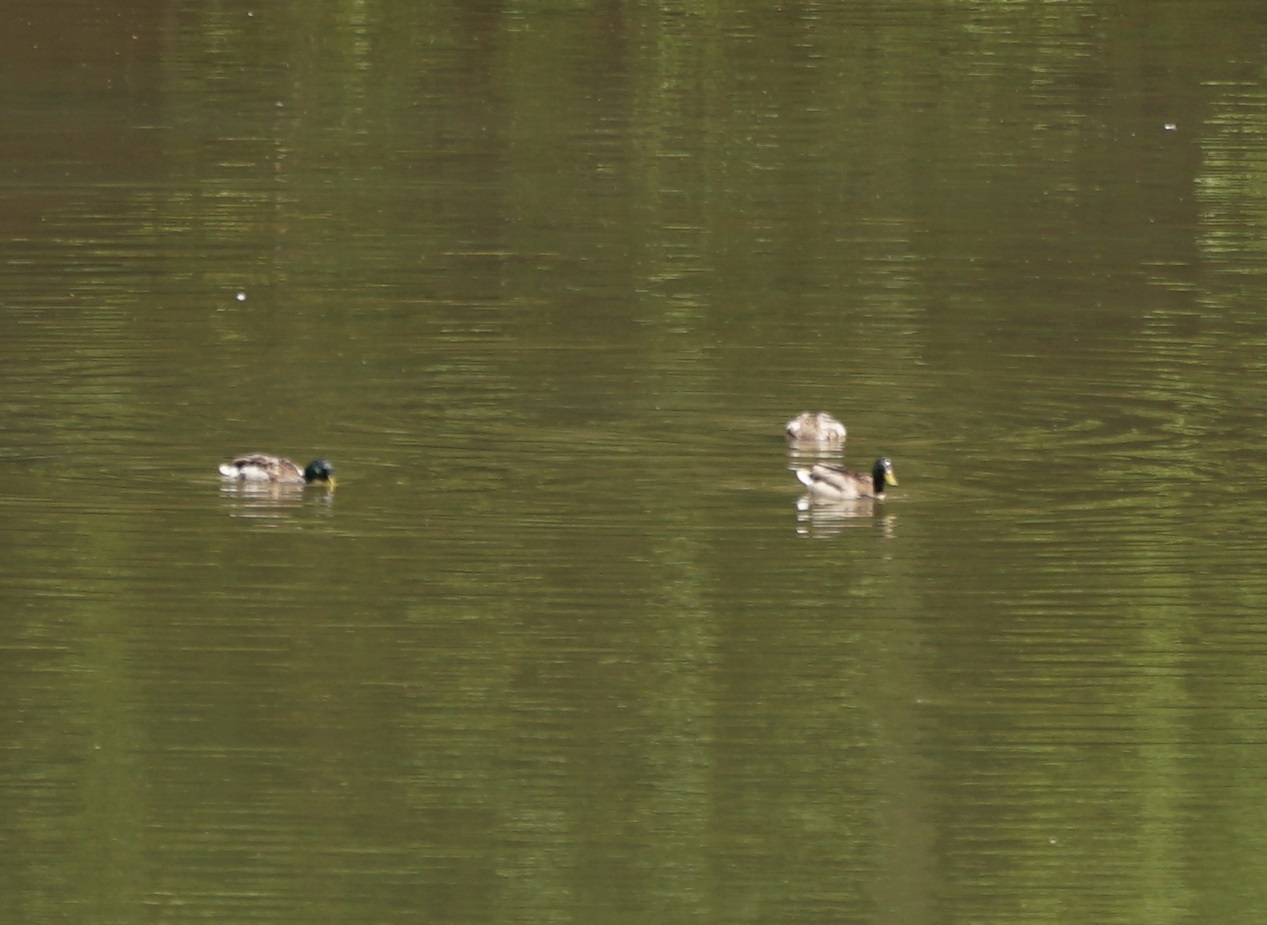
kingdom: Animalia
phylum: Chordata
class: Aves
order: Anseriformes
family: Anatidae
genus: Anas
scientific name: Anas platyrhynchos
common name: Mallard
